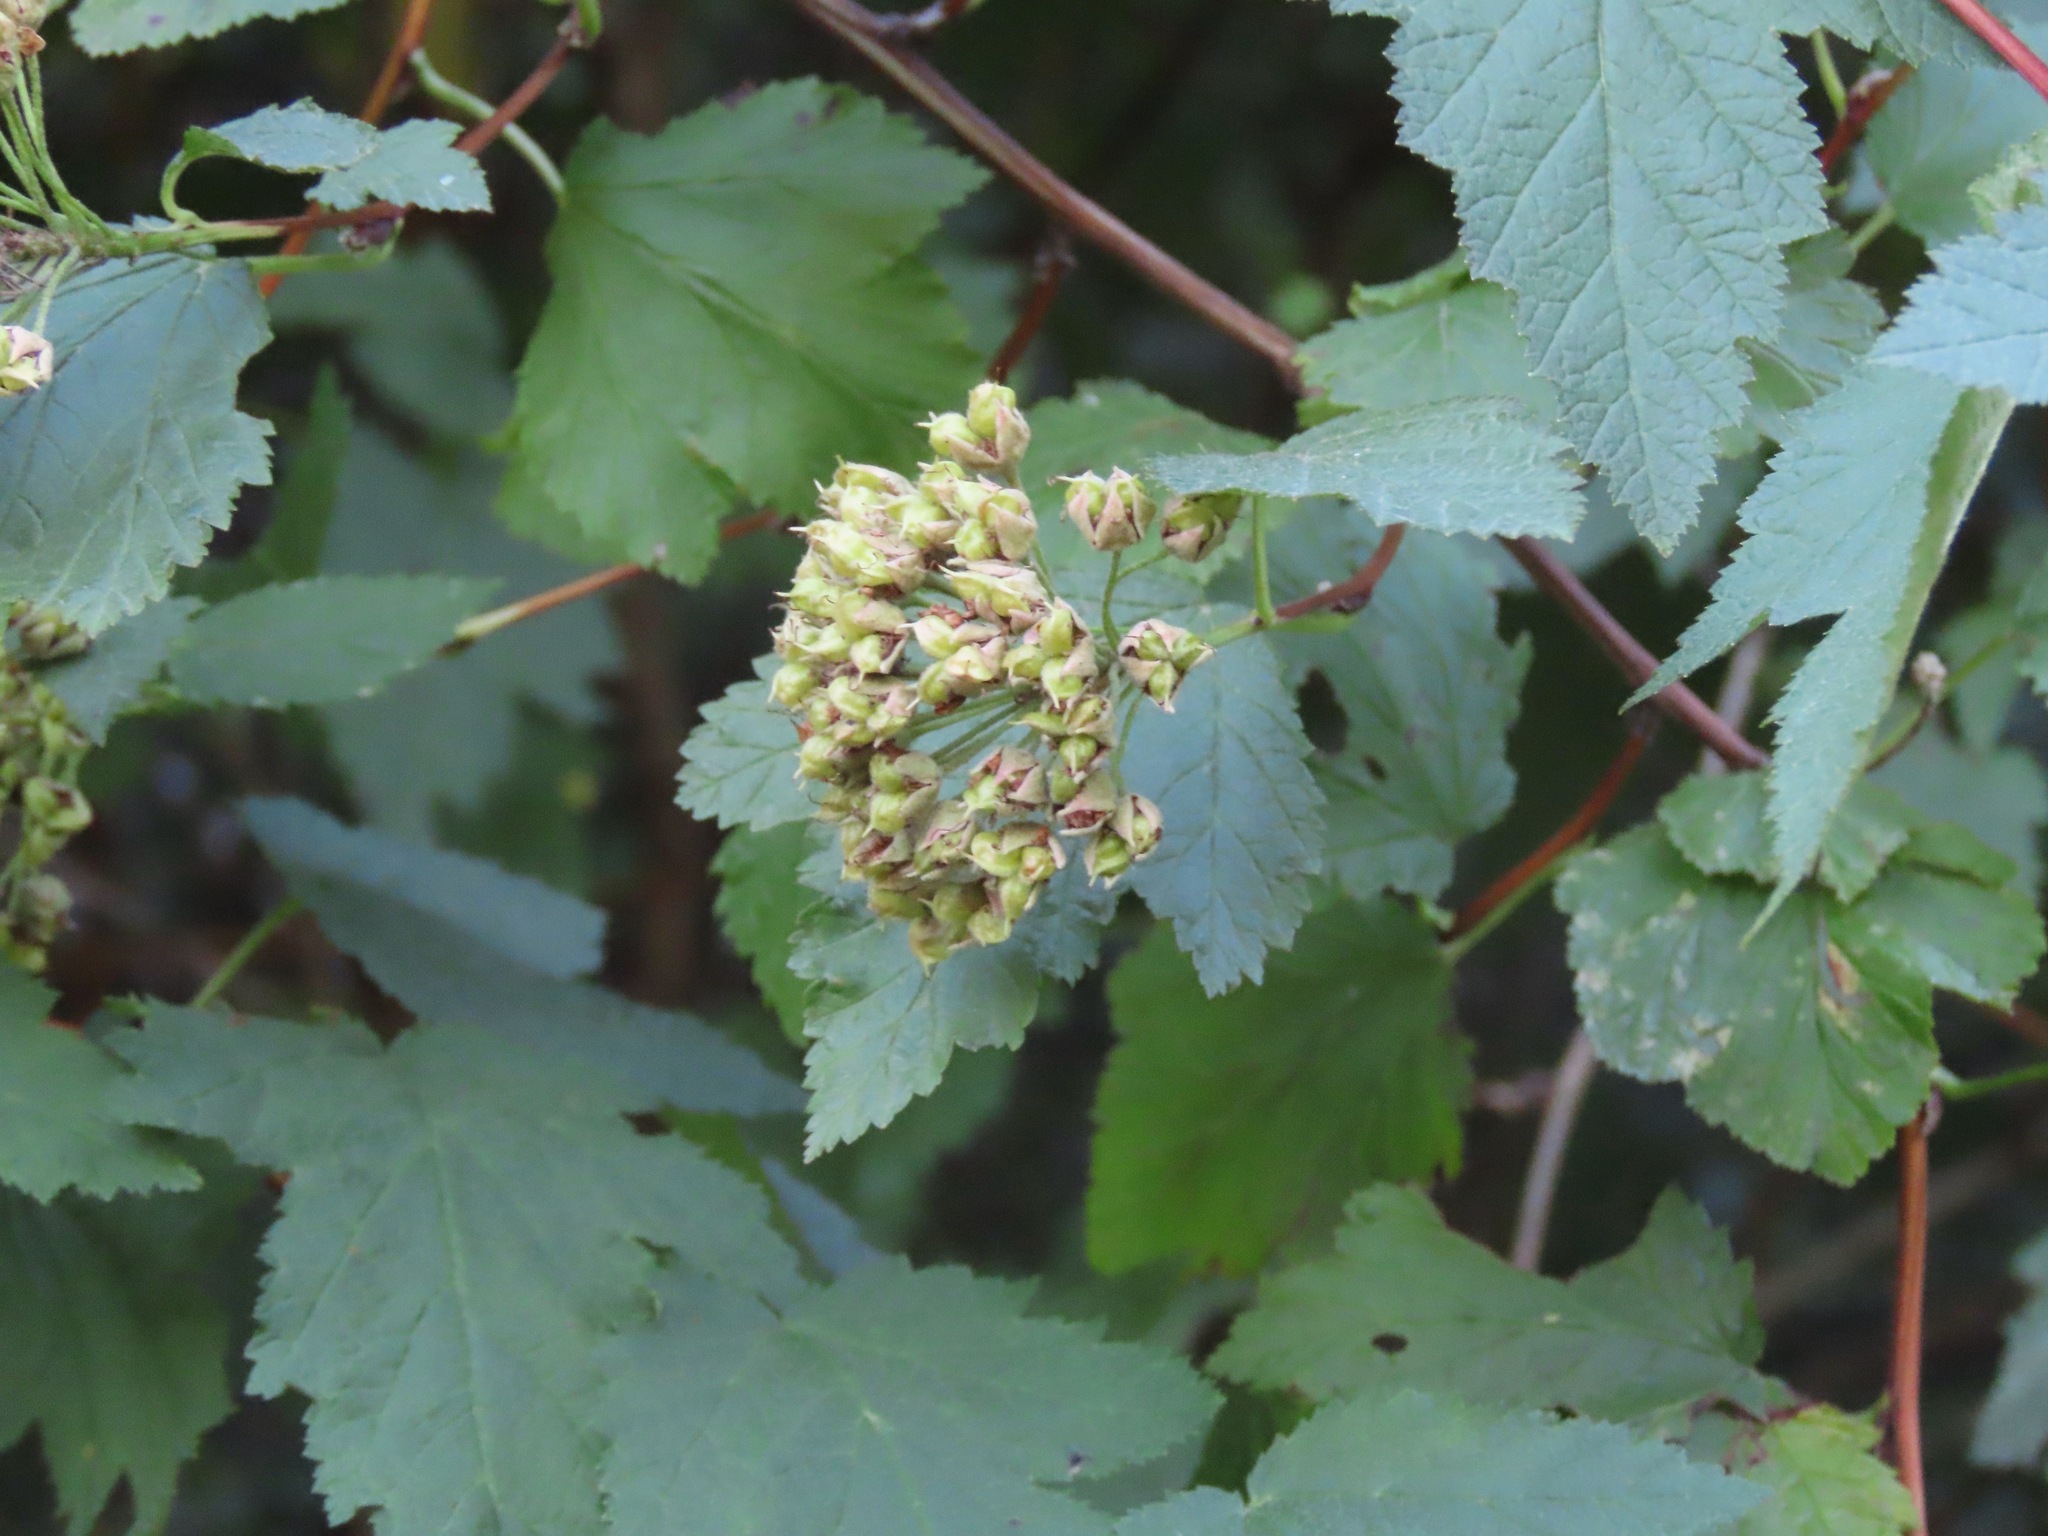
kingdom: Plantae
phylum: Tracheophyta
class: Magnoliopsida
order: Rosales
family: Rosaceae
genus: Physocarpus
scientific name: Physocarpus capitatus
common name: Pacific ninebark
